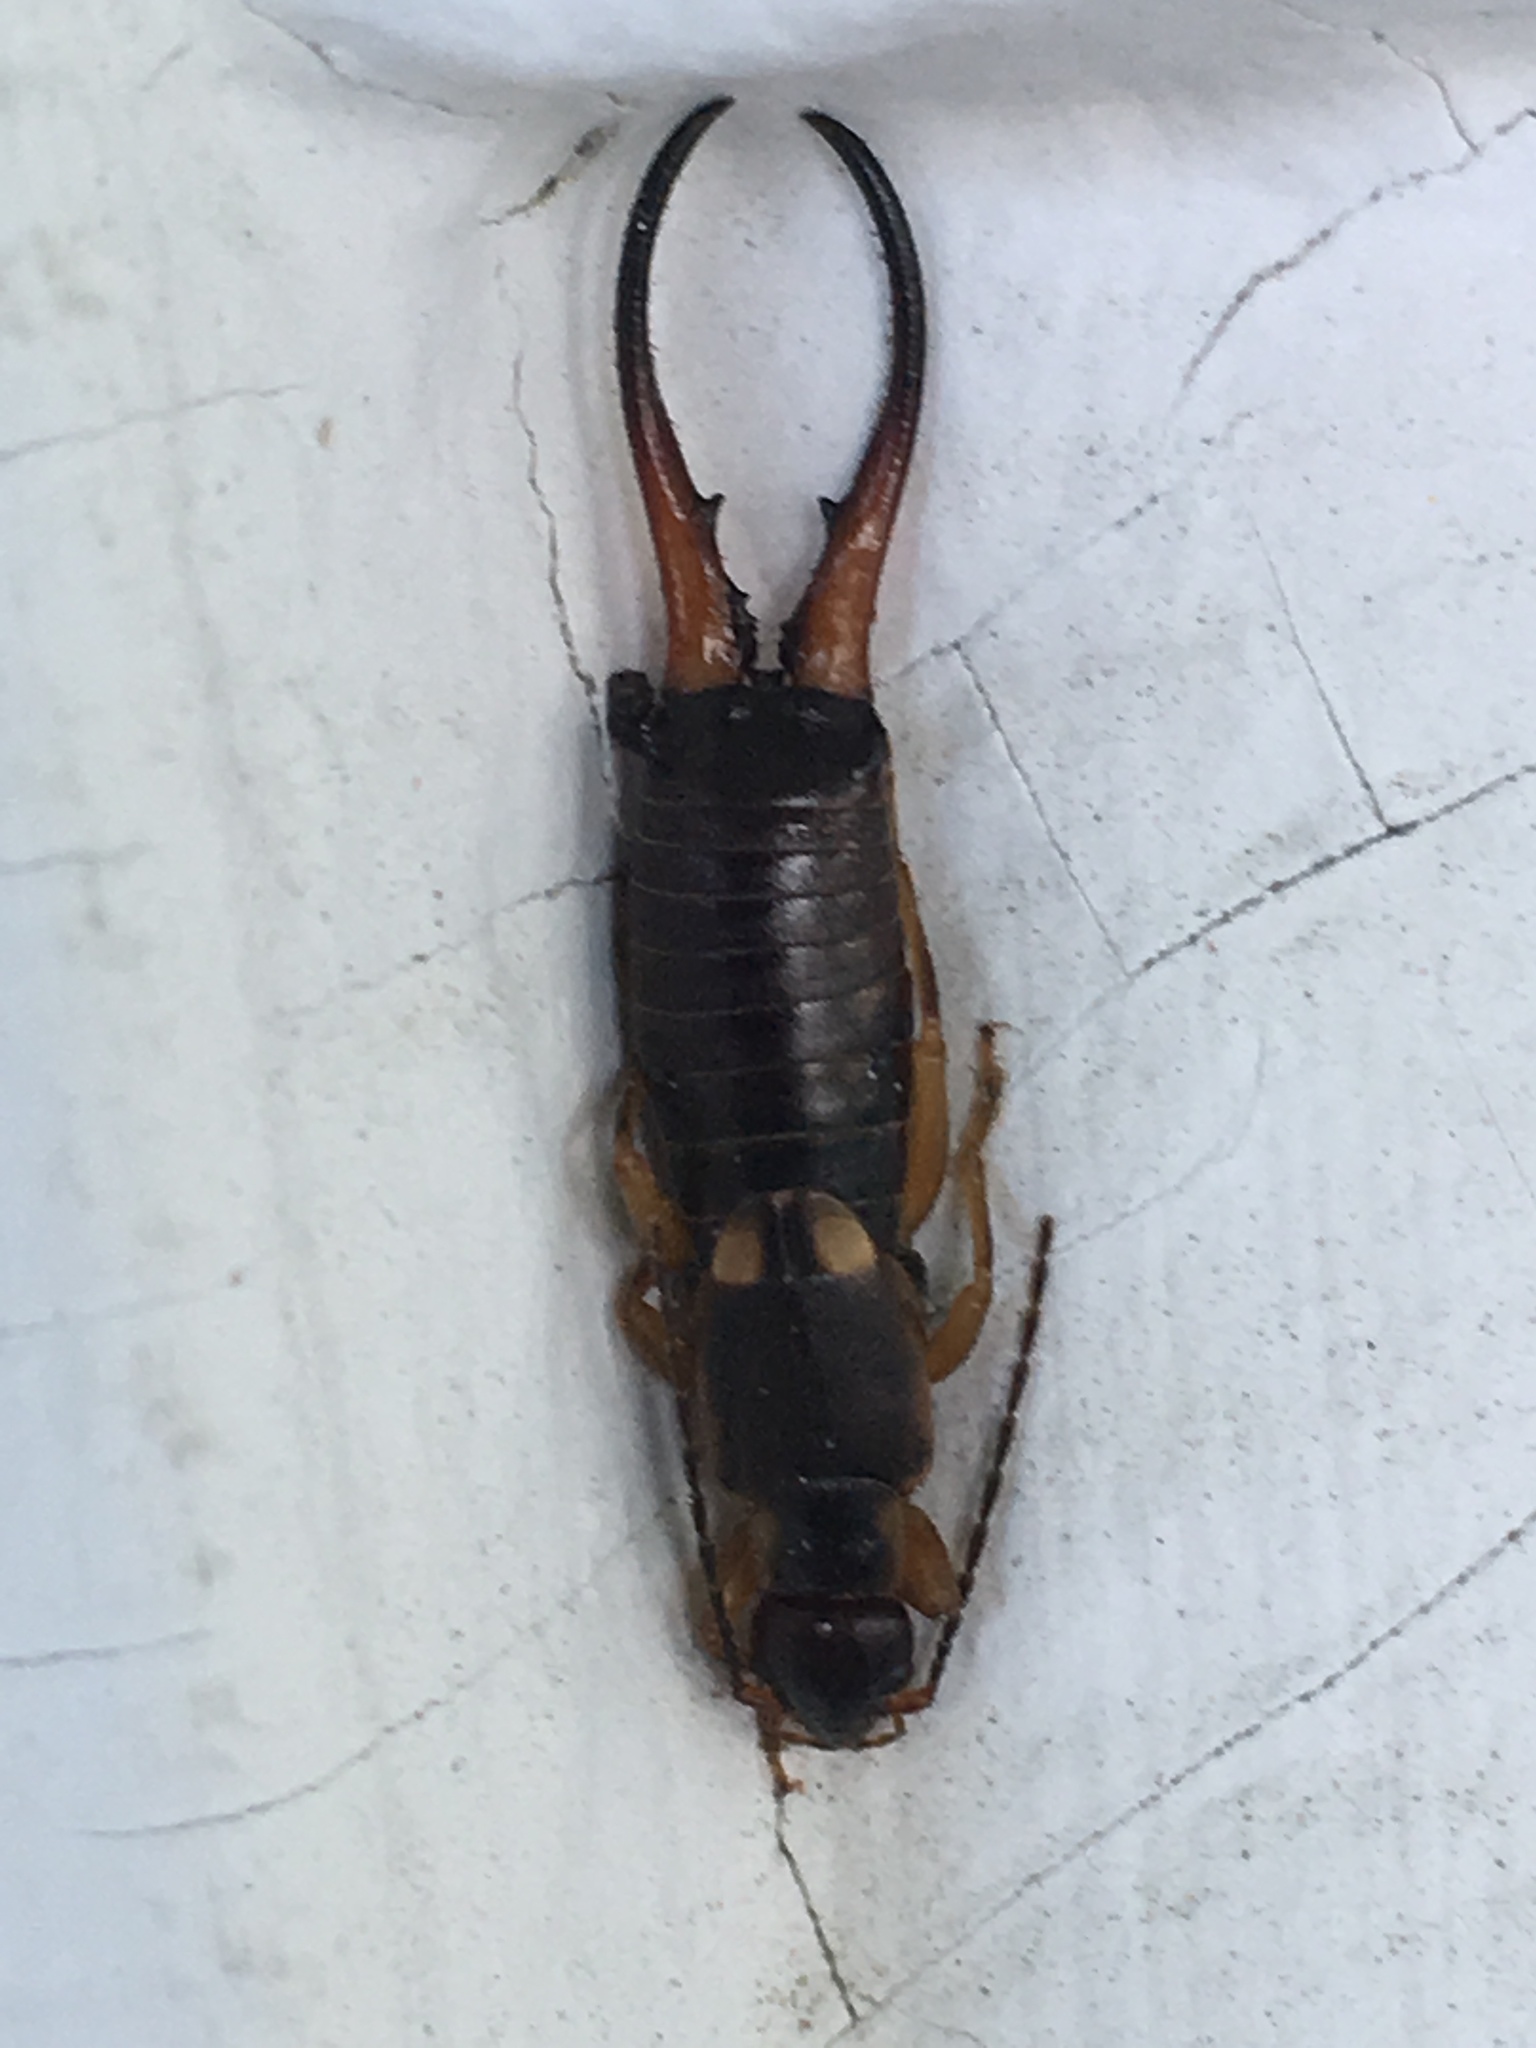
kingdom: Animalia
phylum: Arthropoda
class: Insecta
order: Dermaptera
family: Forficulidae
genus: Forficula
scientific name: Forficula
